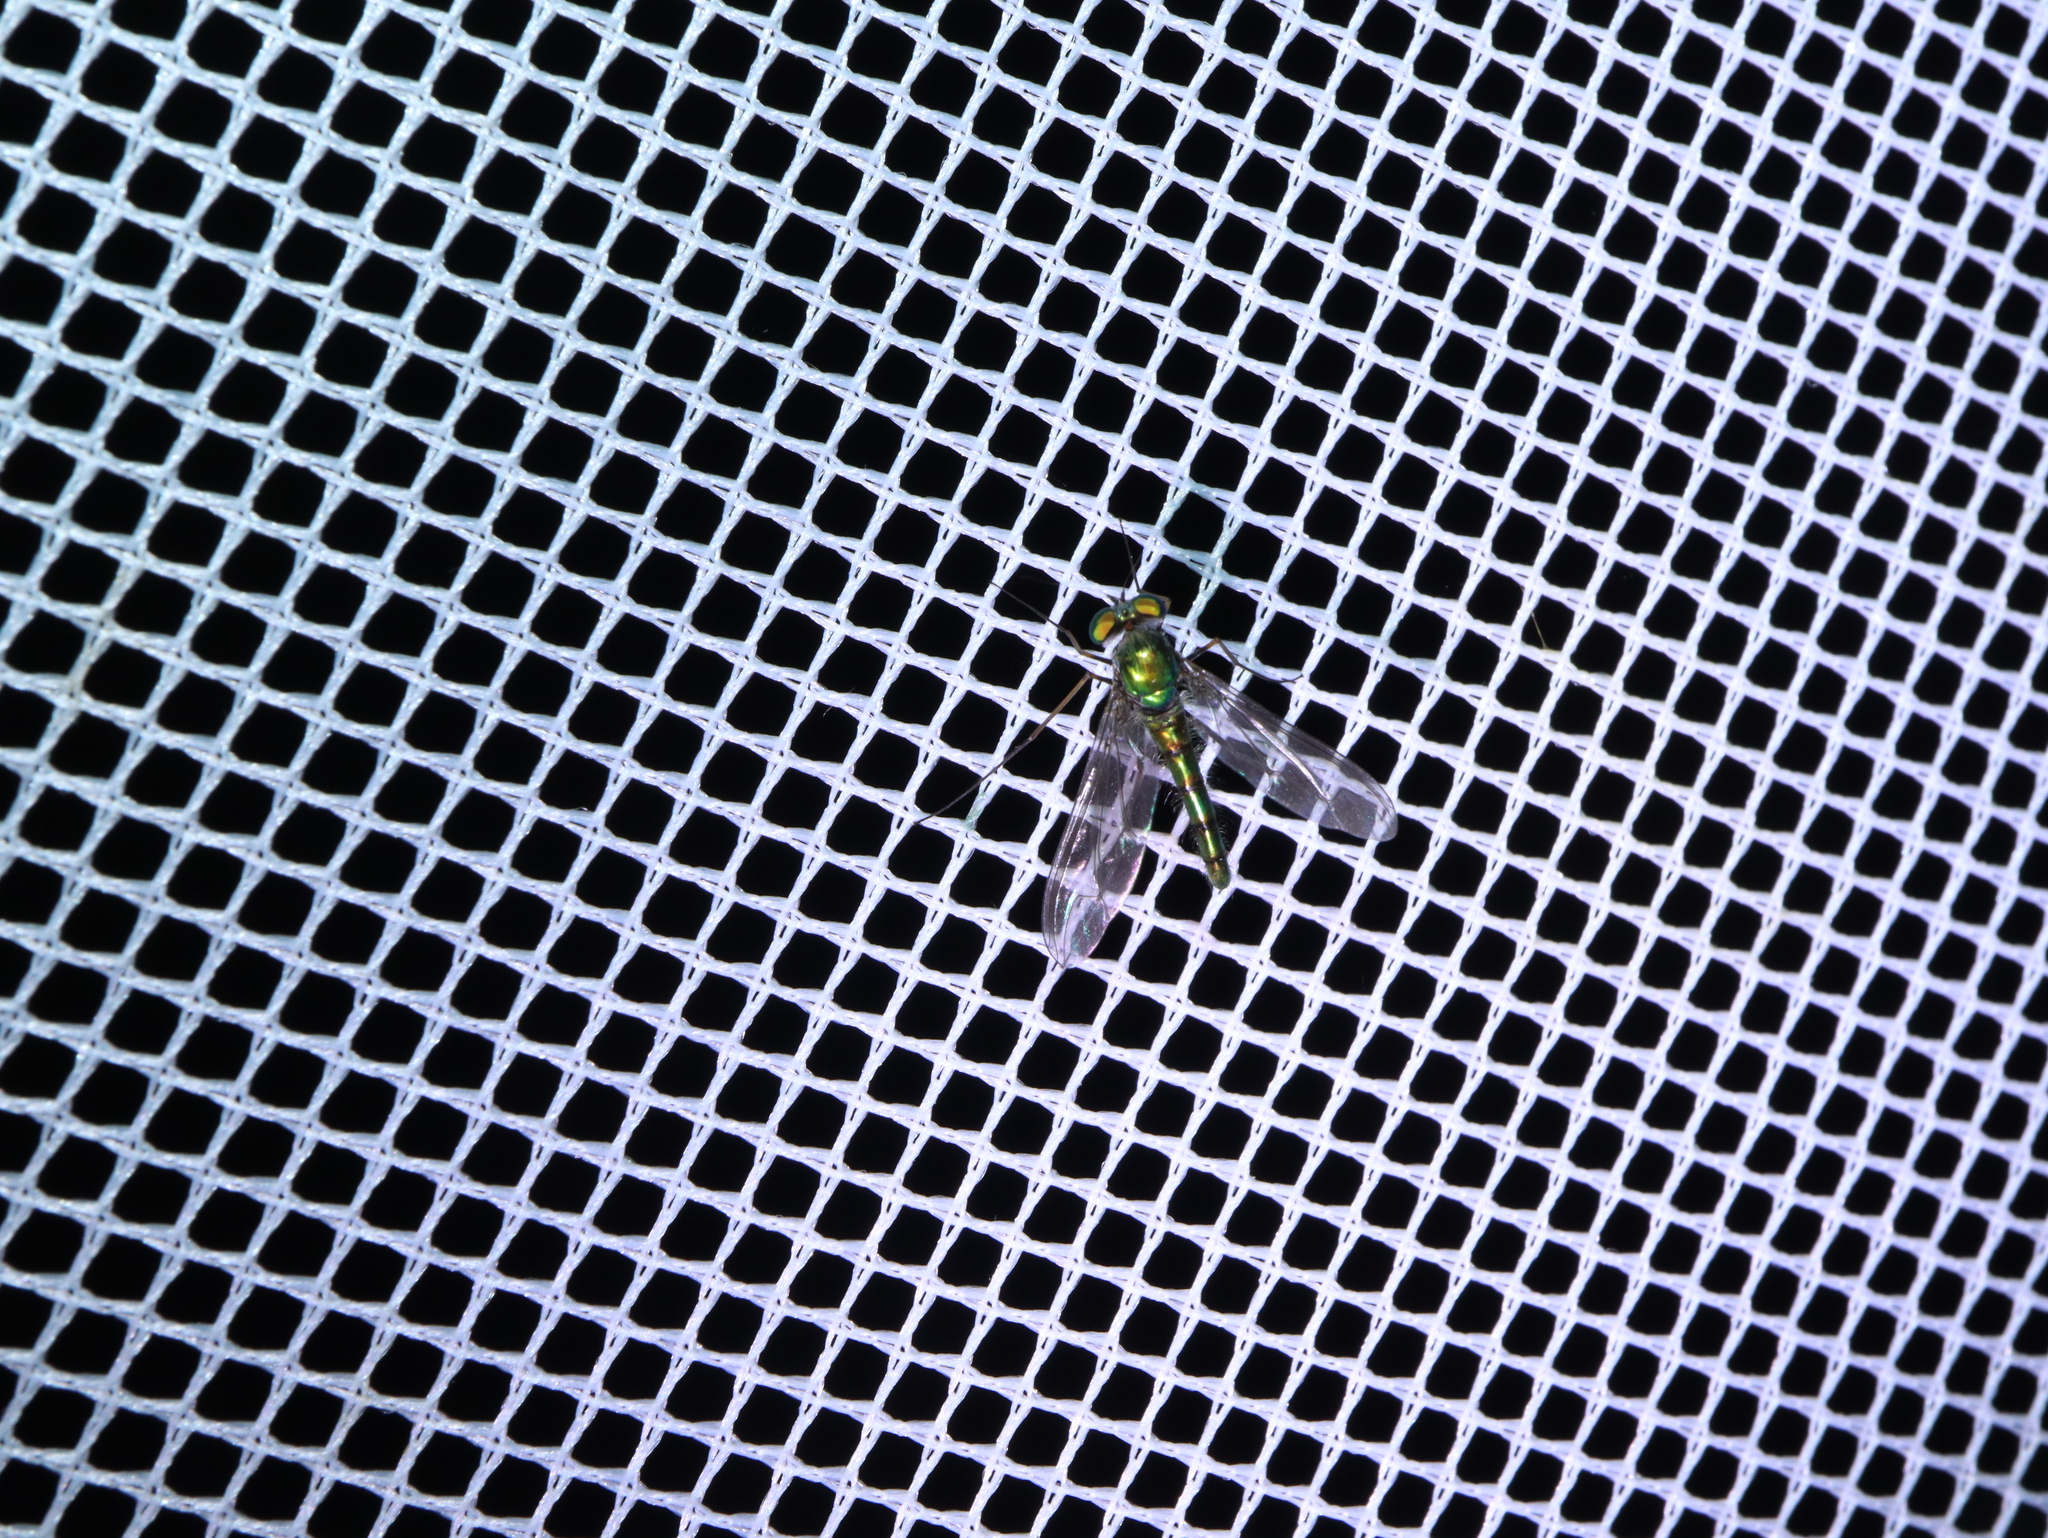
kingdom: Animalia
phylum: Arthropoda
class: Insecta
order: Diptera
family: Dolichopodidae
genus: Heteropsilopus
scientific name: Heteropsilopus cingulipes
